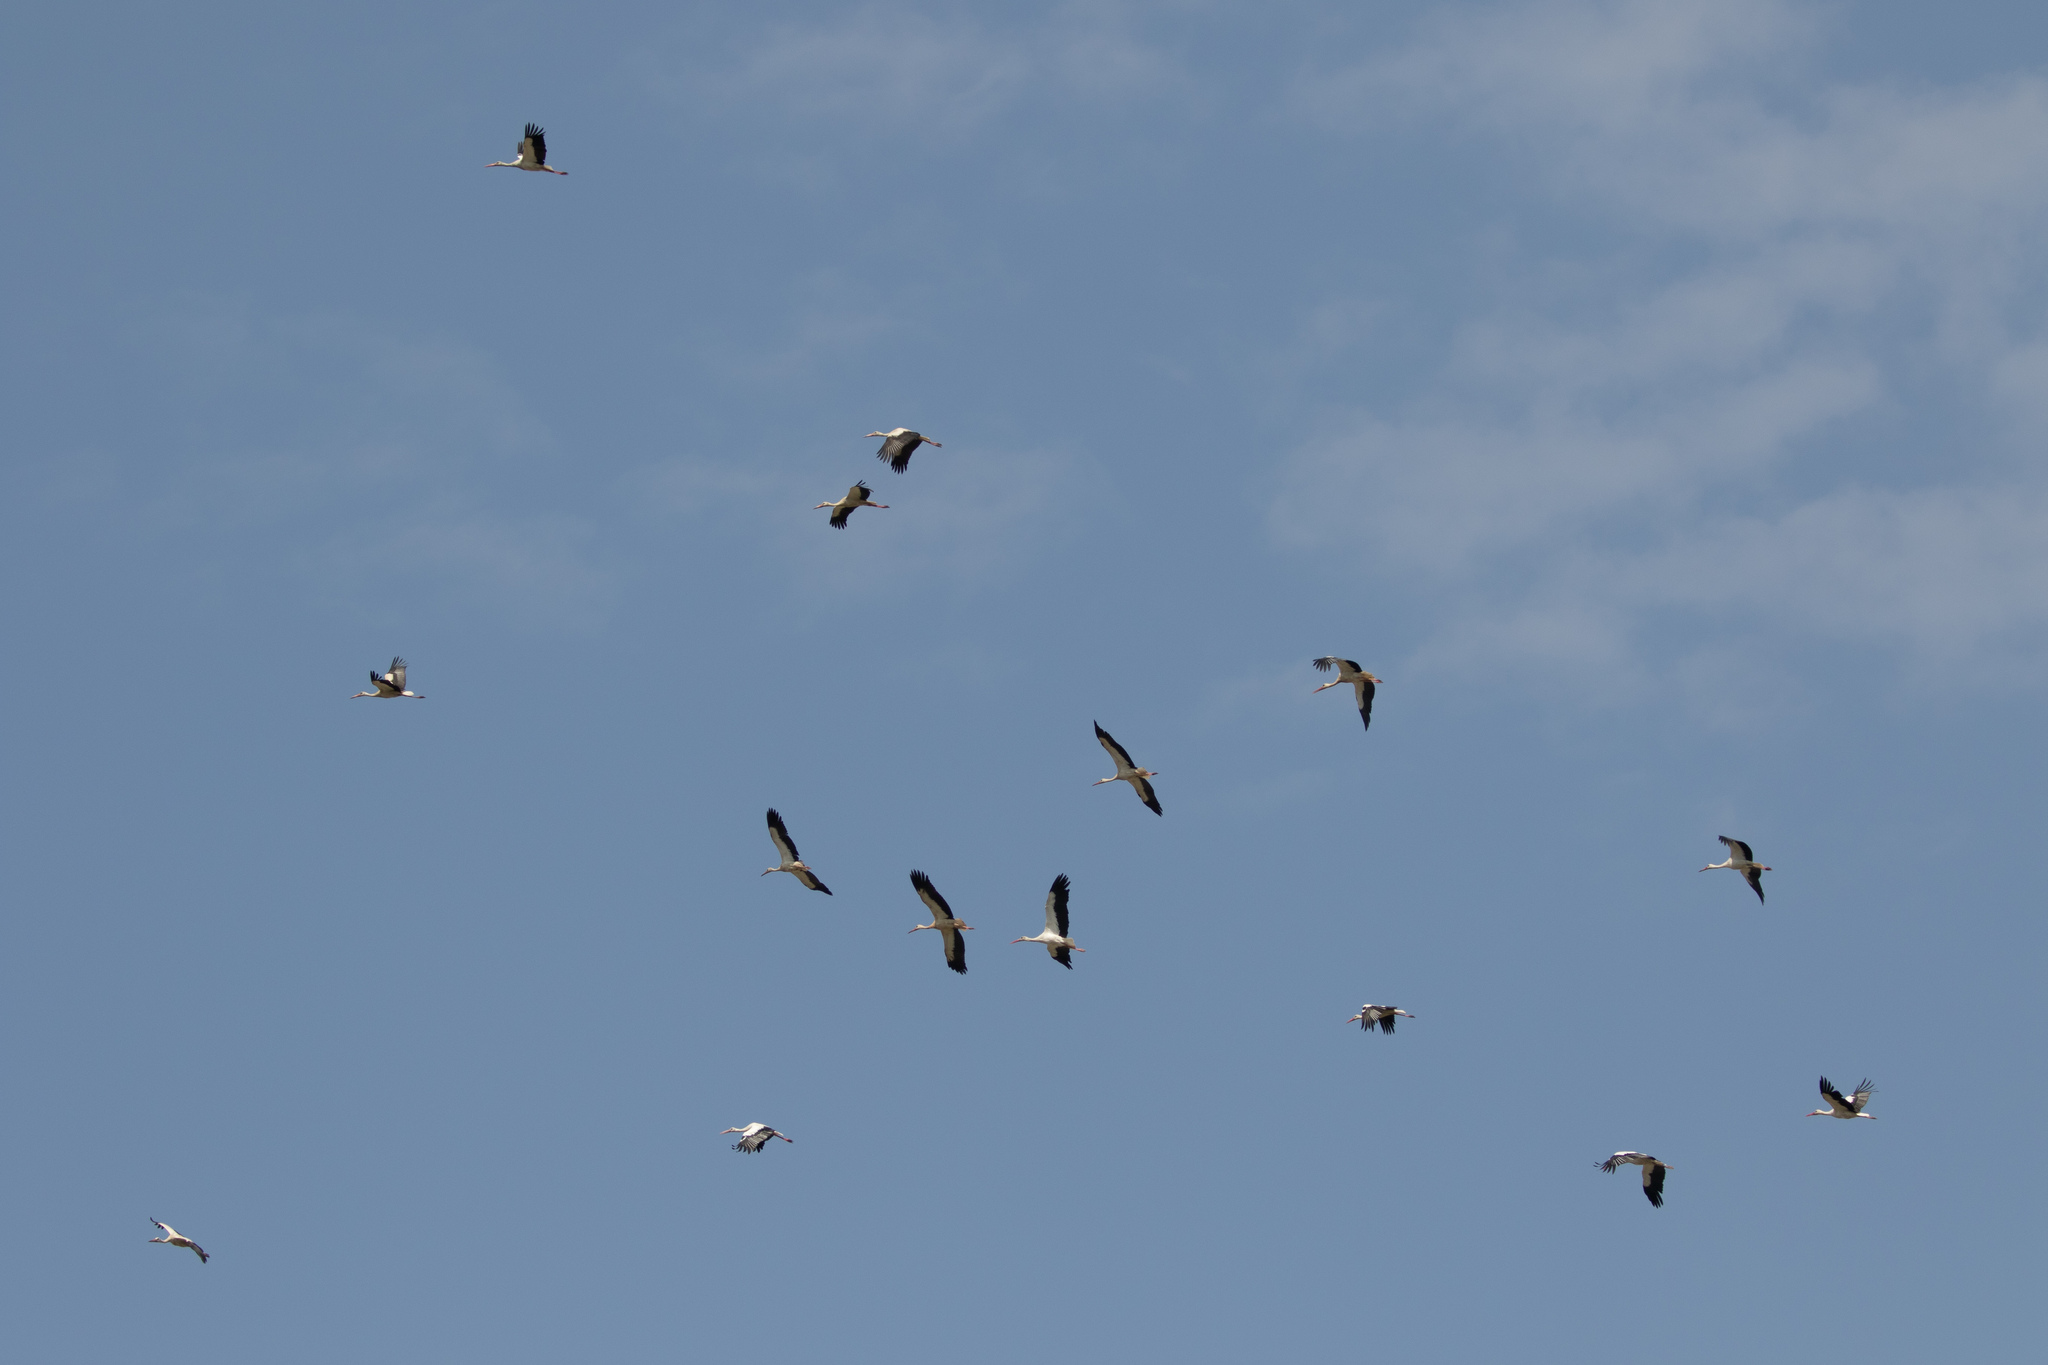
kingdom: Animalia
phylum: Chordata
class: Aves
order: Ciconiiformes
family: Ciconiidae
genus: Ciconia
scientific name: Ciconia ciconia
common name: White stork
